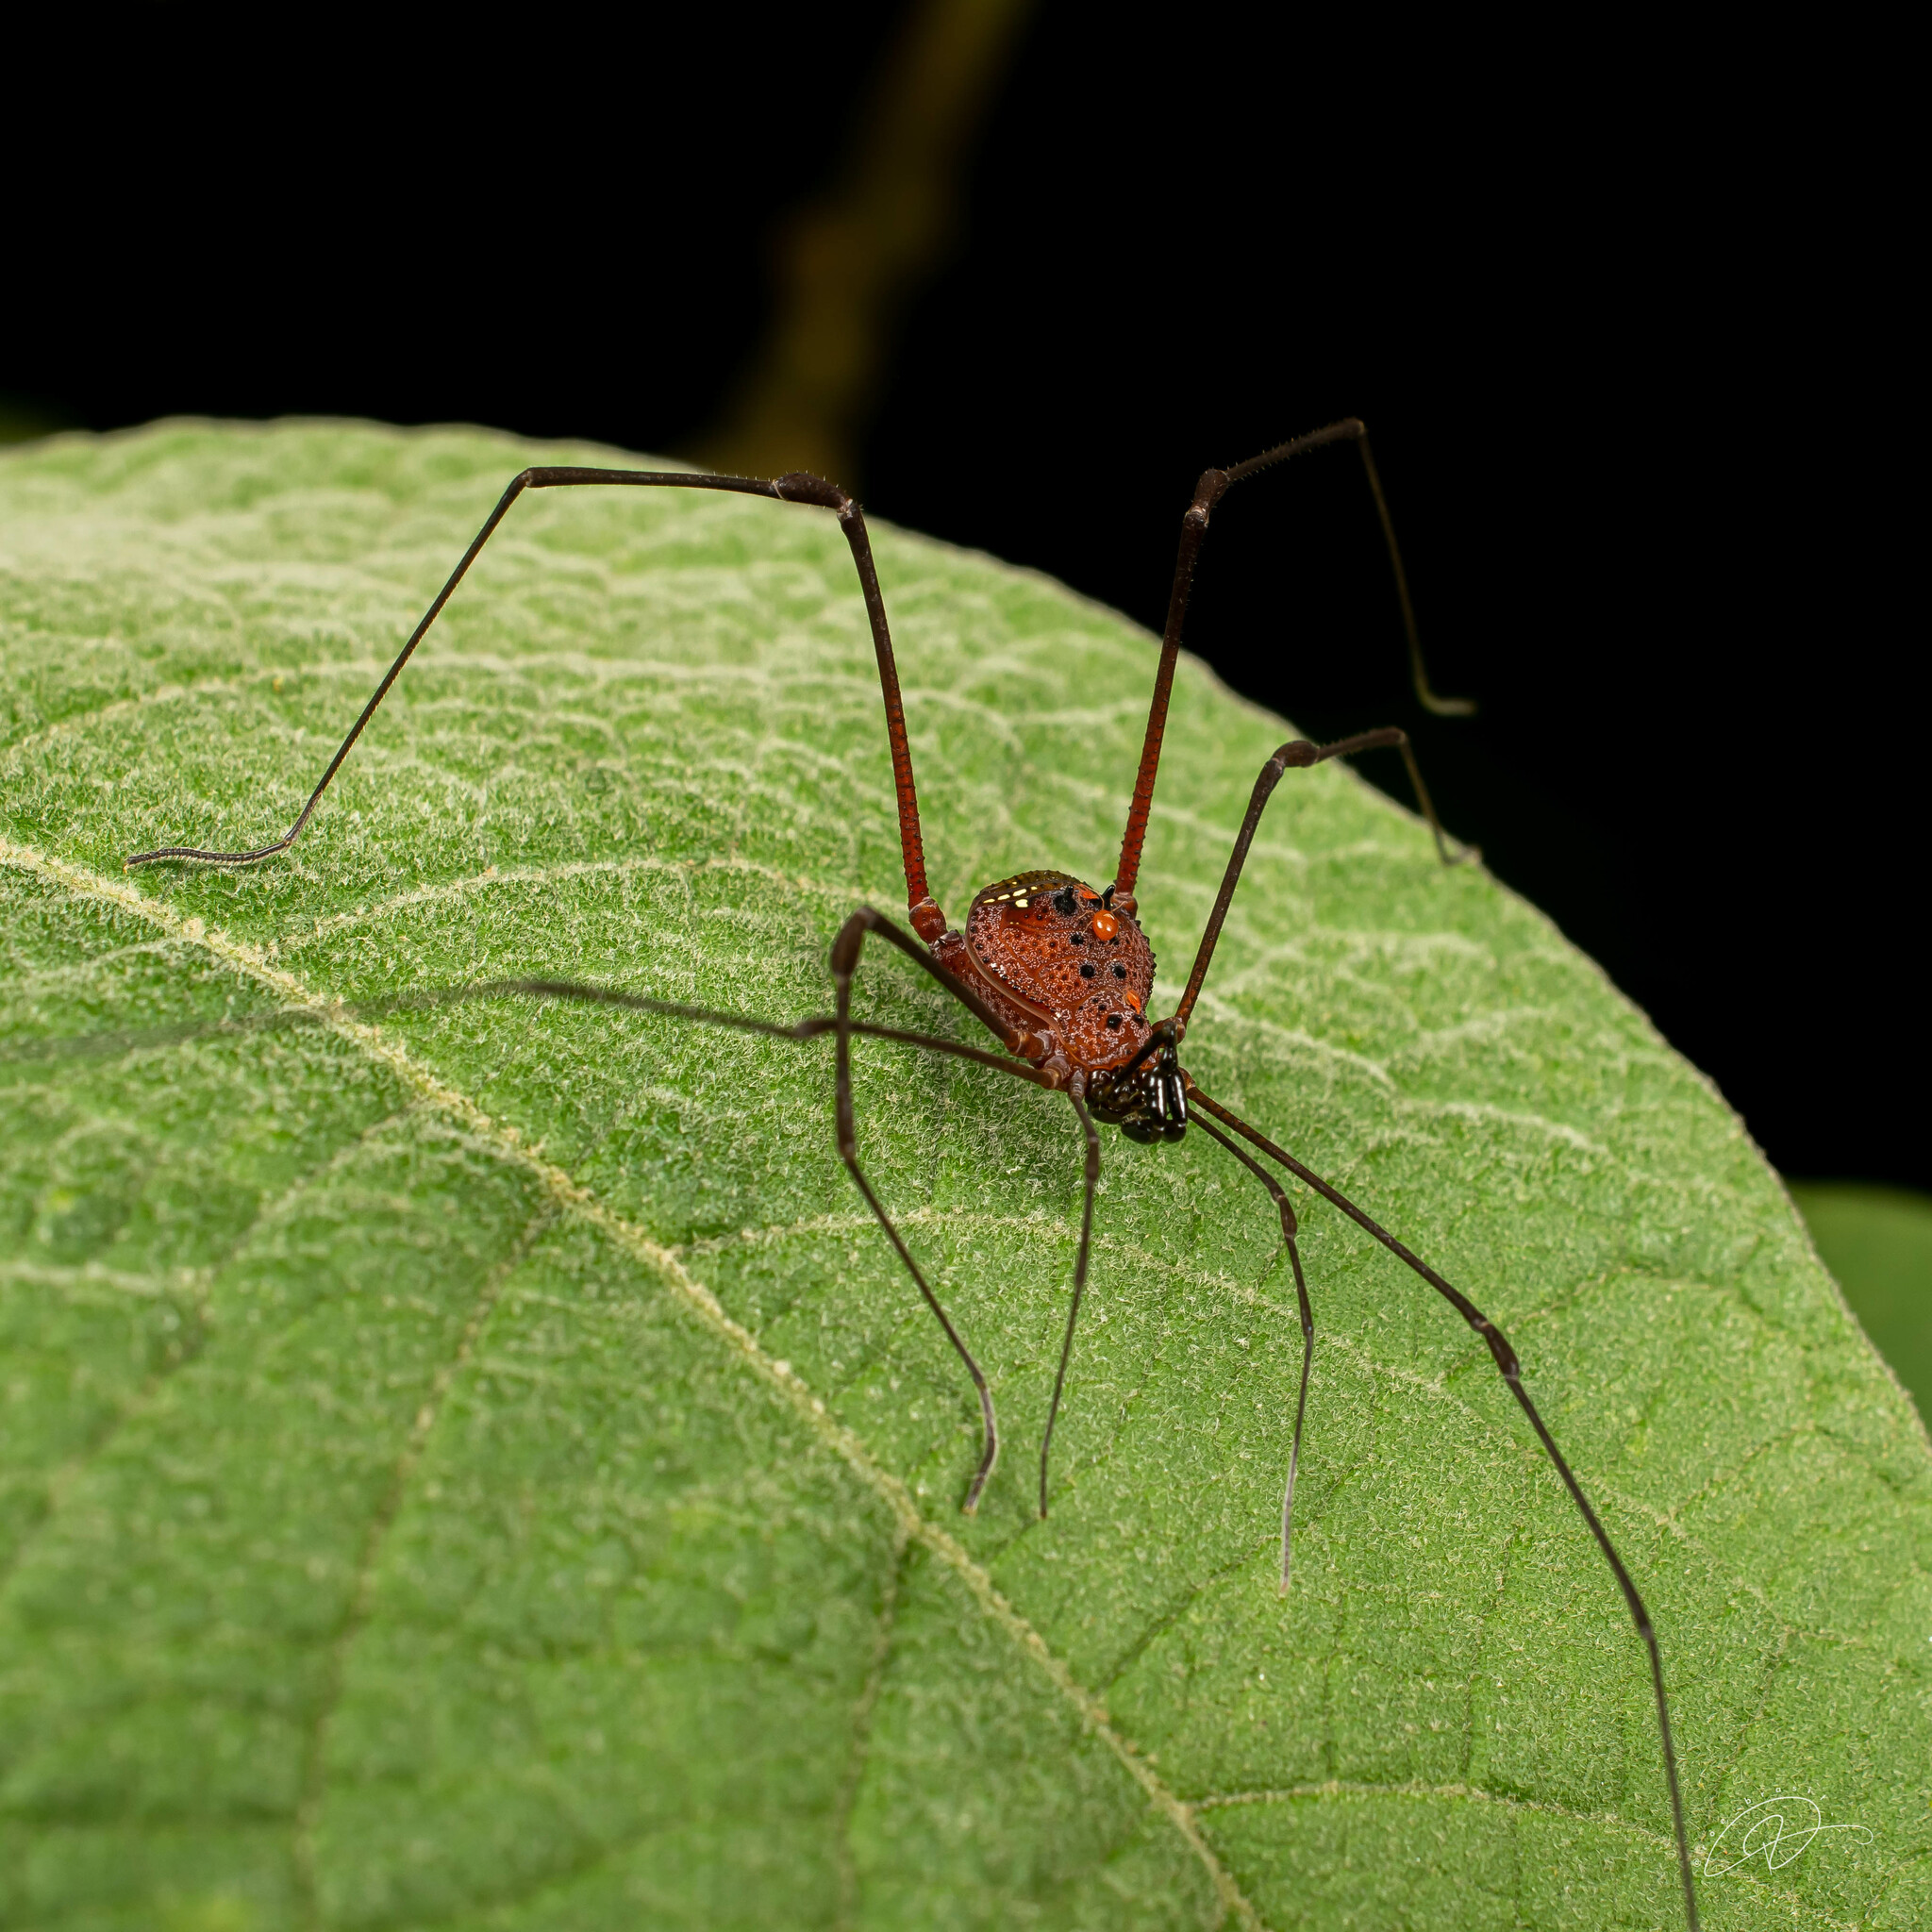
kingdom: Animalia
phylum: Arthropoda
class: Arachnida
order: Opiliones
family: Gonyleptidae
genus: Pristocnemus
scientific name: Pristocnemus farinosus
